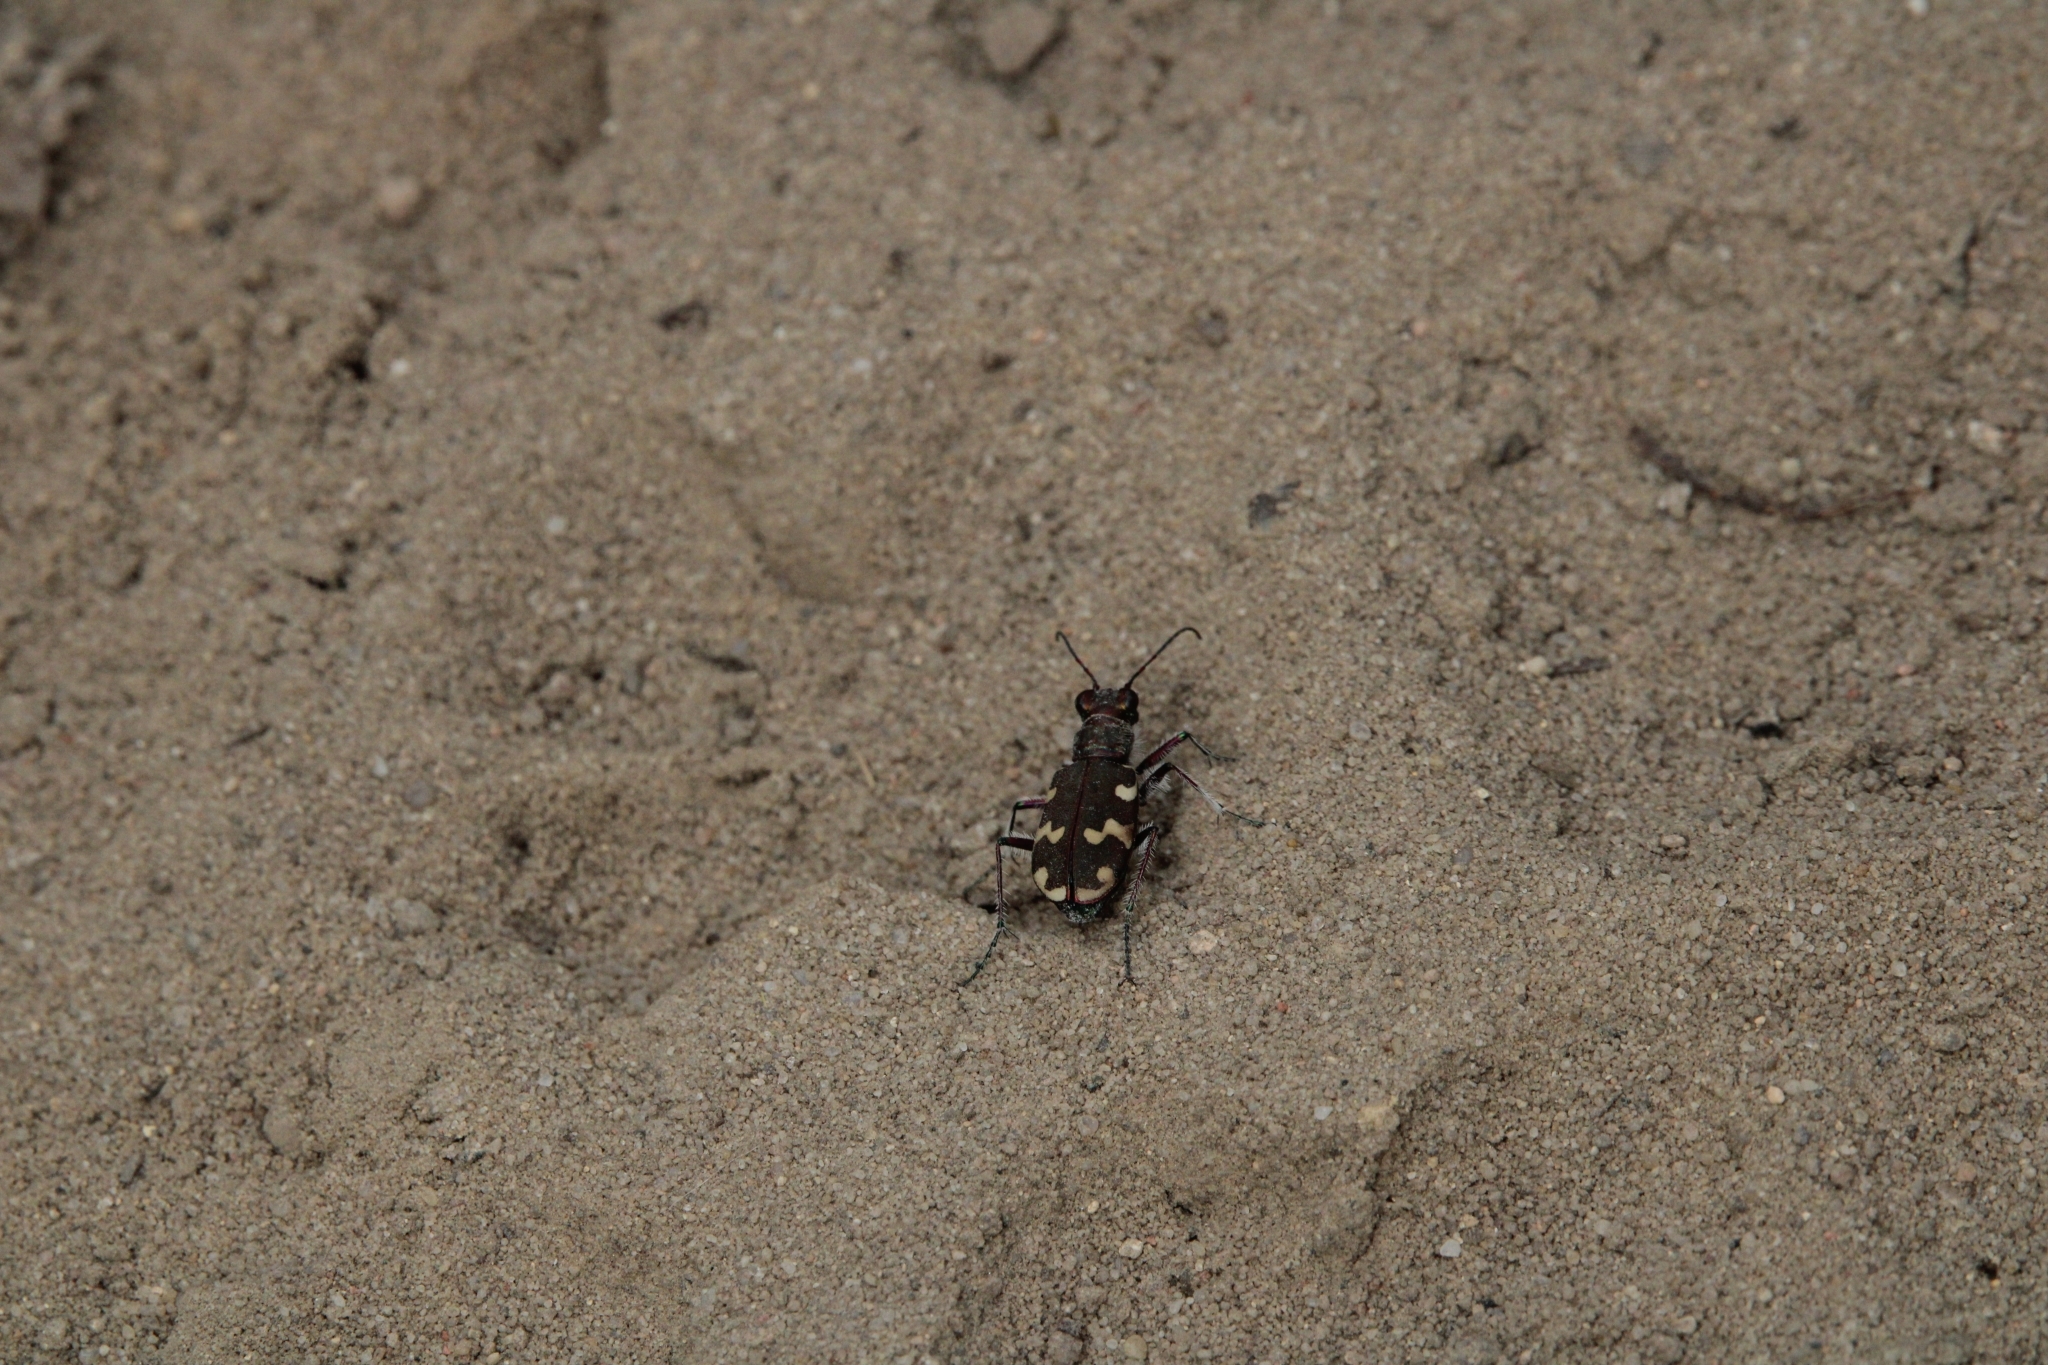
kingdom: Animalia
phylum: Arthropoda
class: Insecta
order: Coleoptera
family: Carabidae
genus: Cicindela
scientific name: Cicindela hybrida
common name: Northern dune tiger beetle
